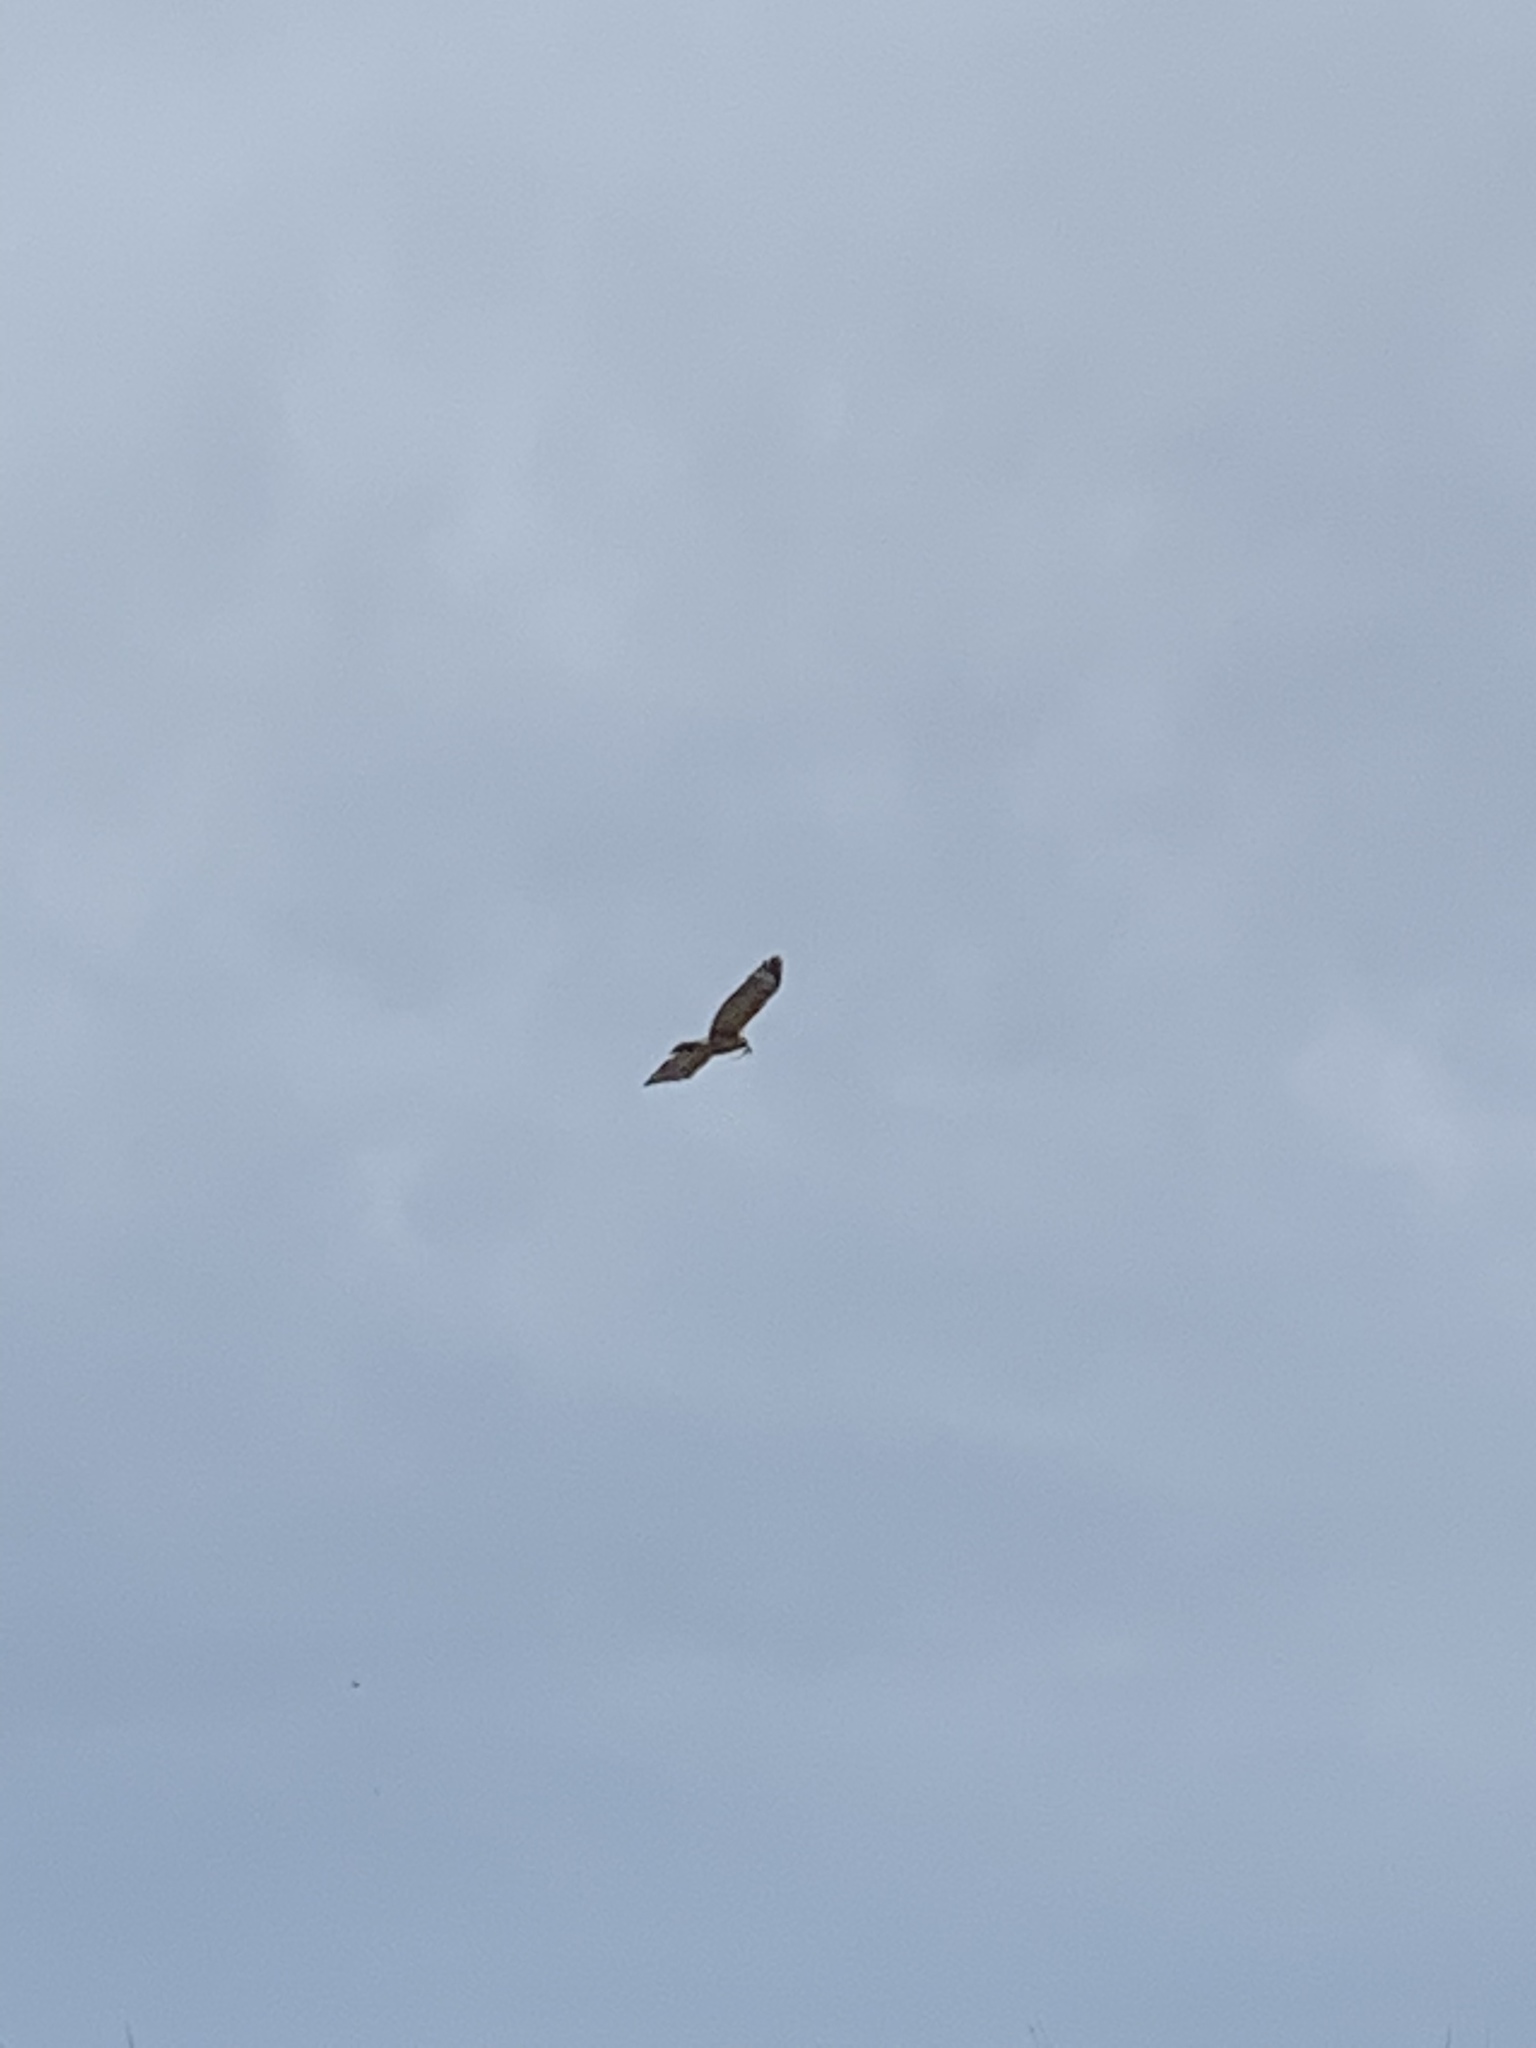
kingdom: Animalia
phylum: Chordata
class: Aves
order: Accipitriformes
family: Accipitridae
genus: Buteo
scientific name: Buteo lineatus
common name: Red-shouldered hawk
